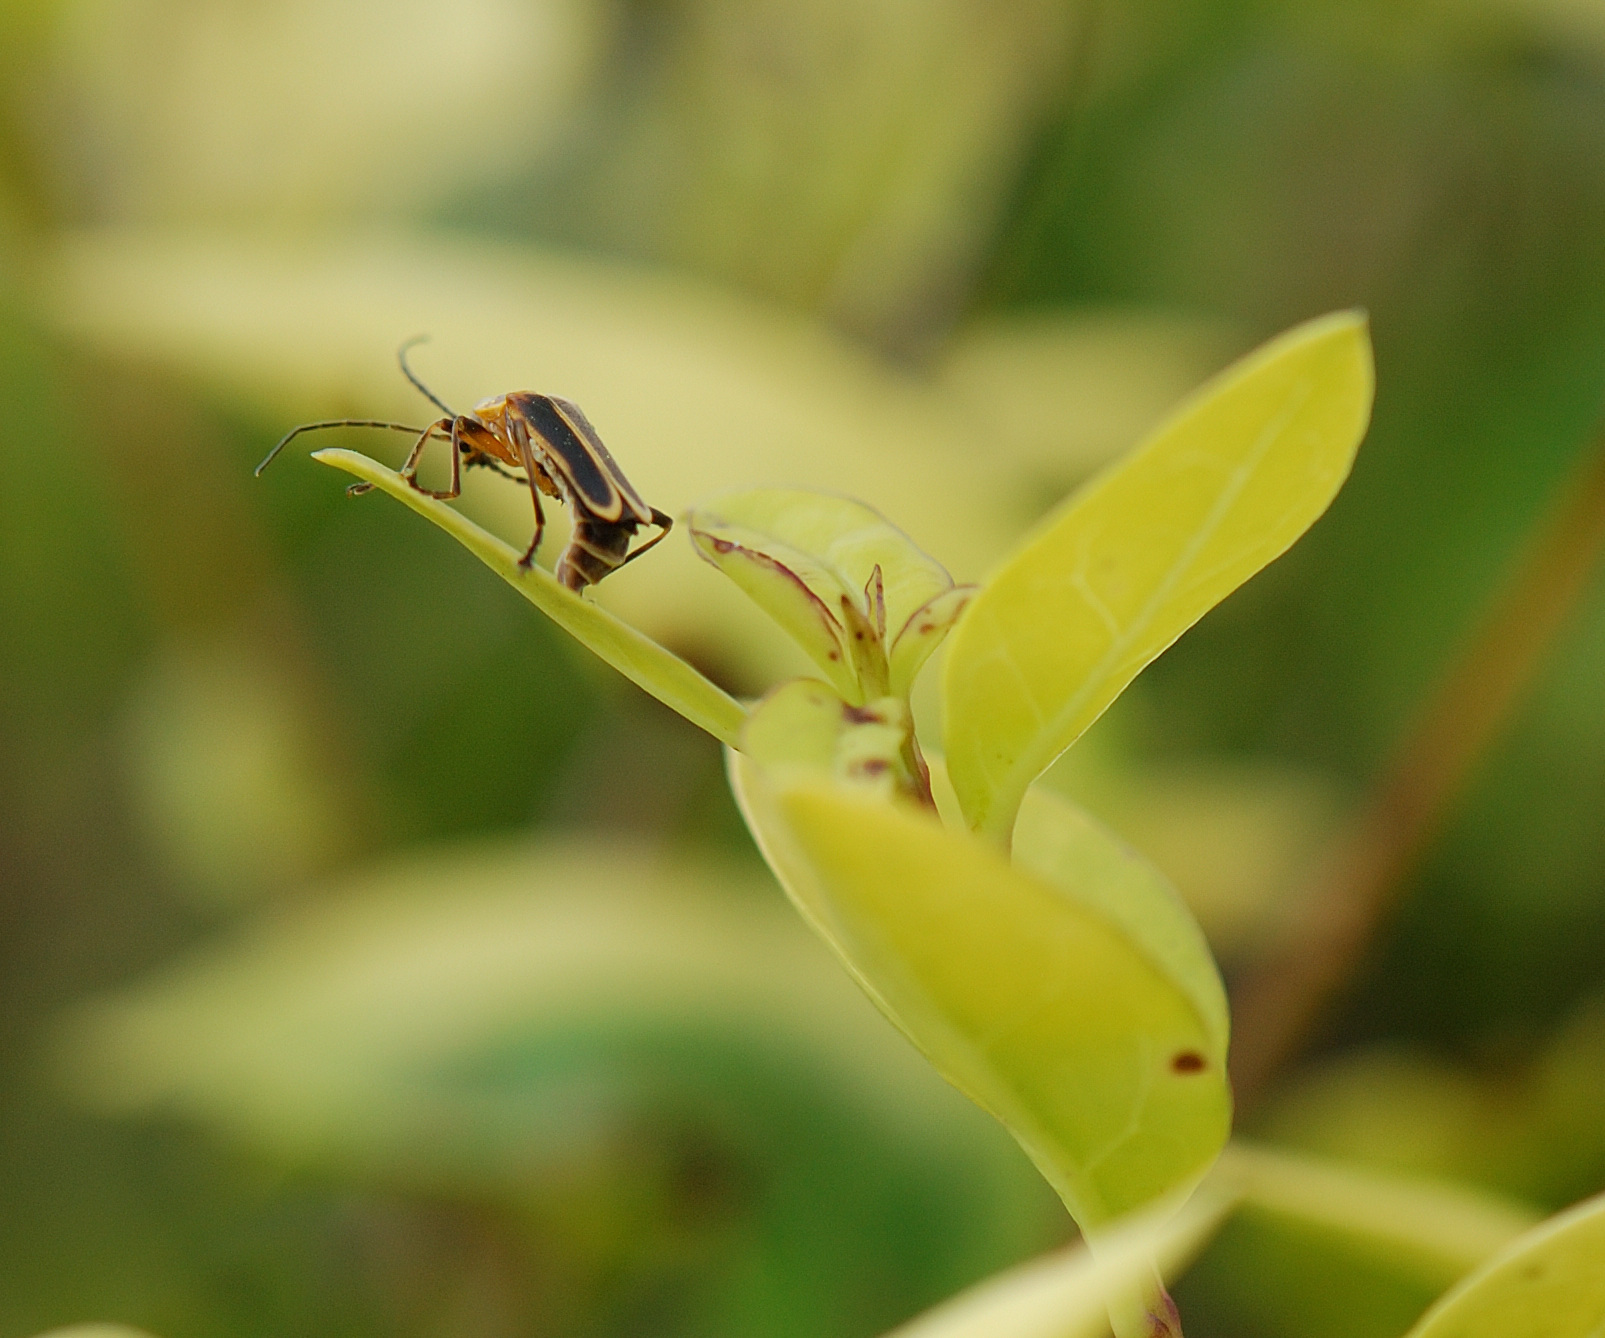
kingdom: Animalia
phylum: Arthropoda
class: Insecta
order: Coleoptera
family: Cantharidae
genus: Chauliognathus
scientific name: Chauliognathus marginatus
